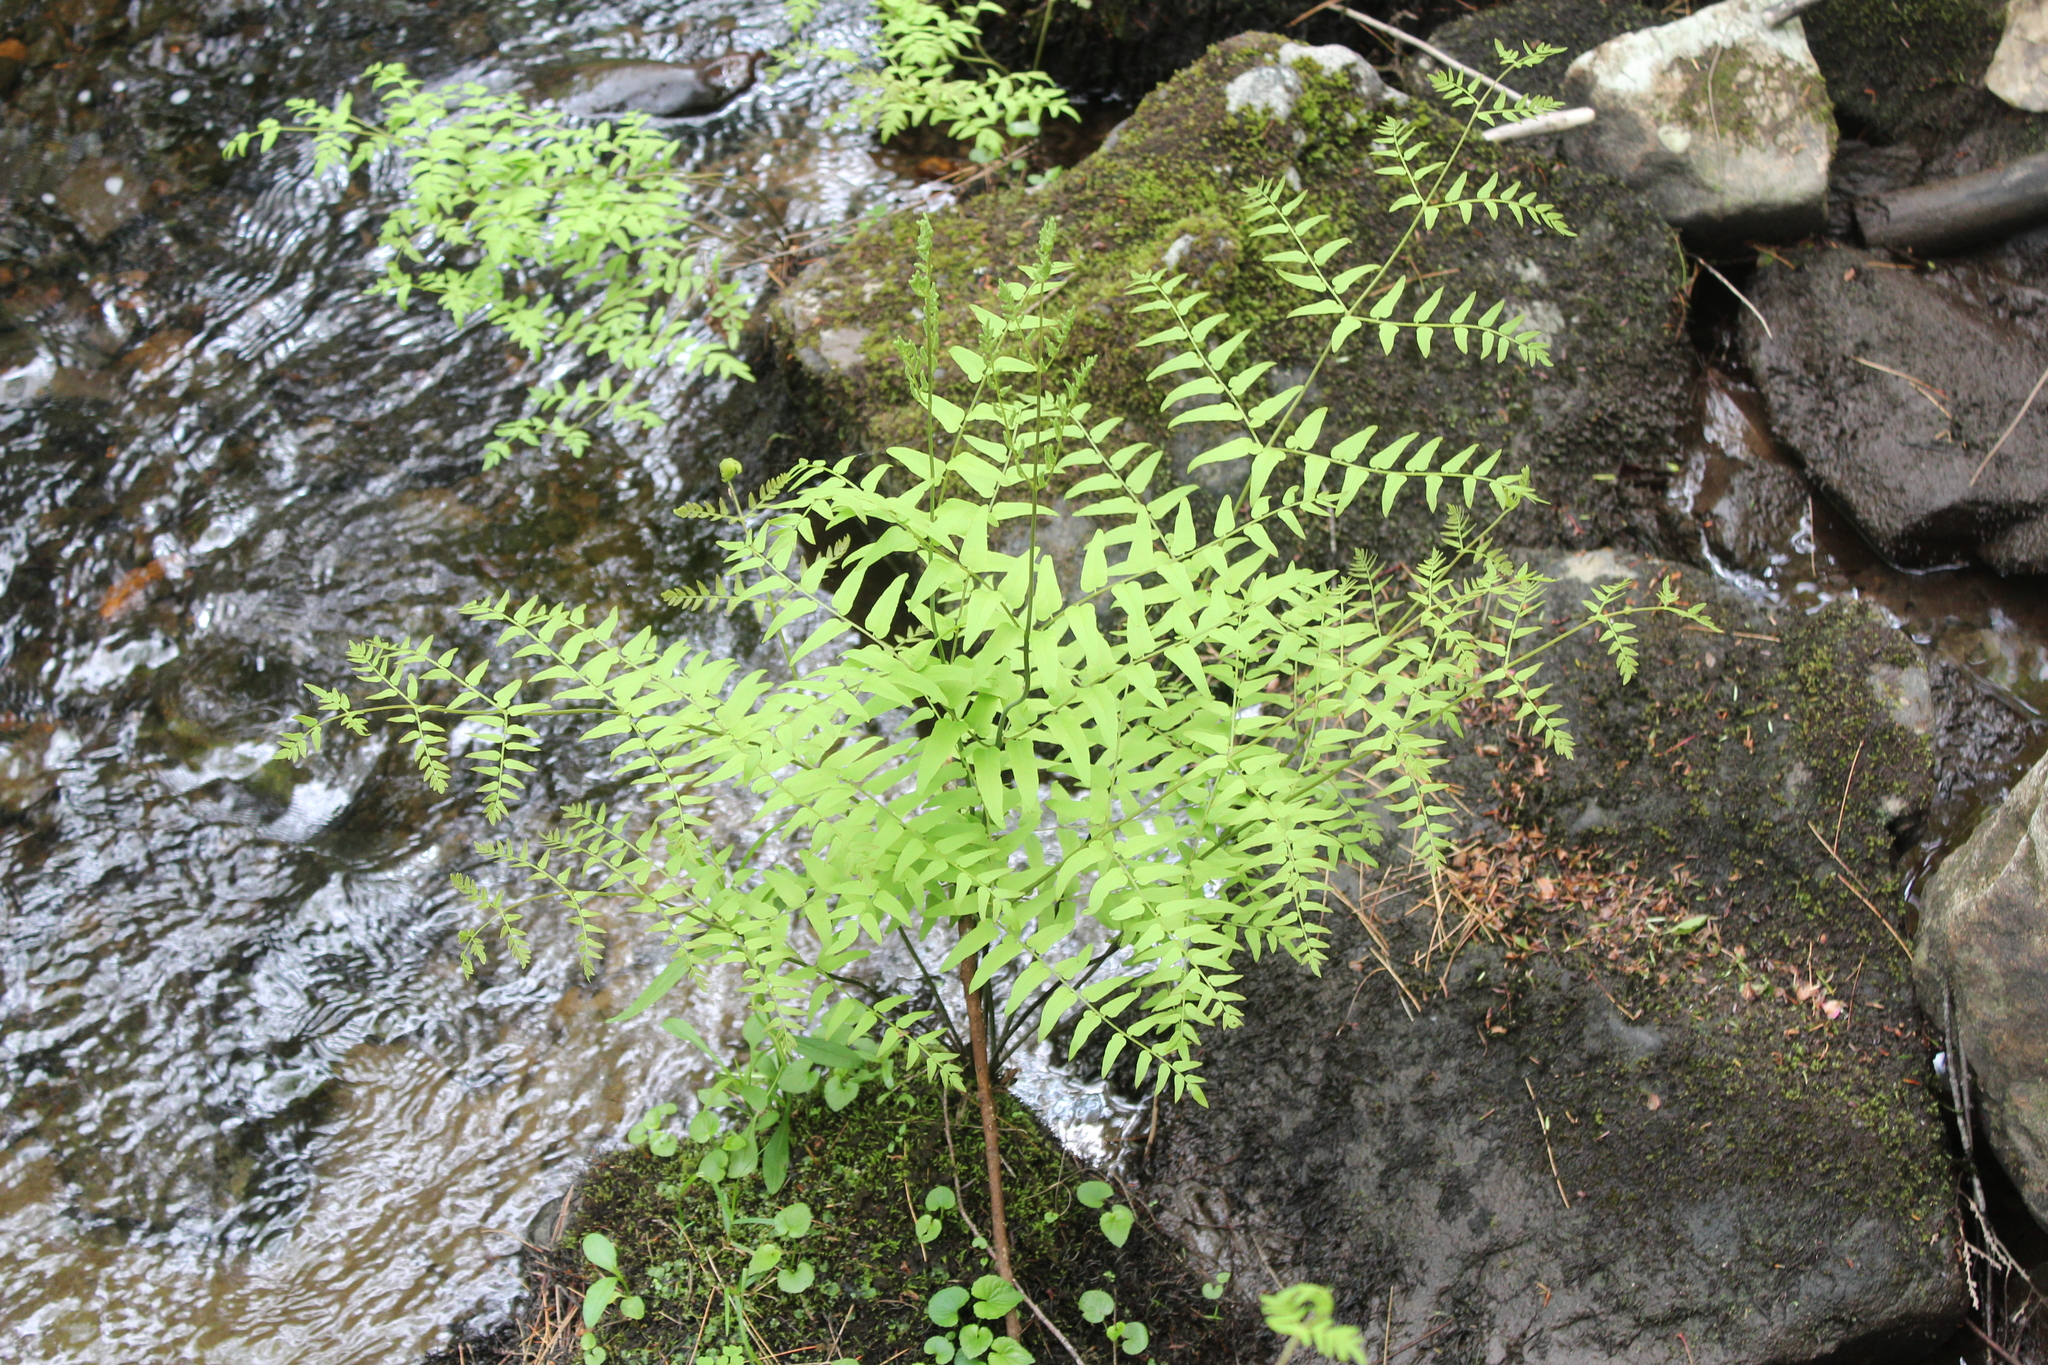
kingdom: Plantae
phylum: Tracheophyta
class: Polypodiopsida
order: Osmundales
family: Osmundaceae
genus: Osmunda
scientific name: Osmunda spectabilis
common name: American royal fern
